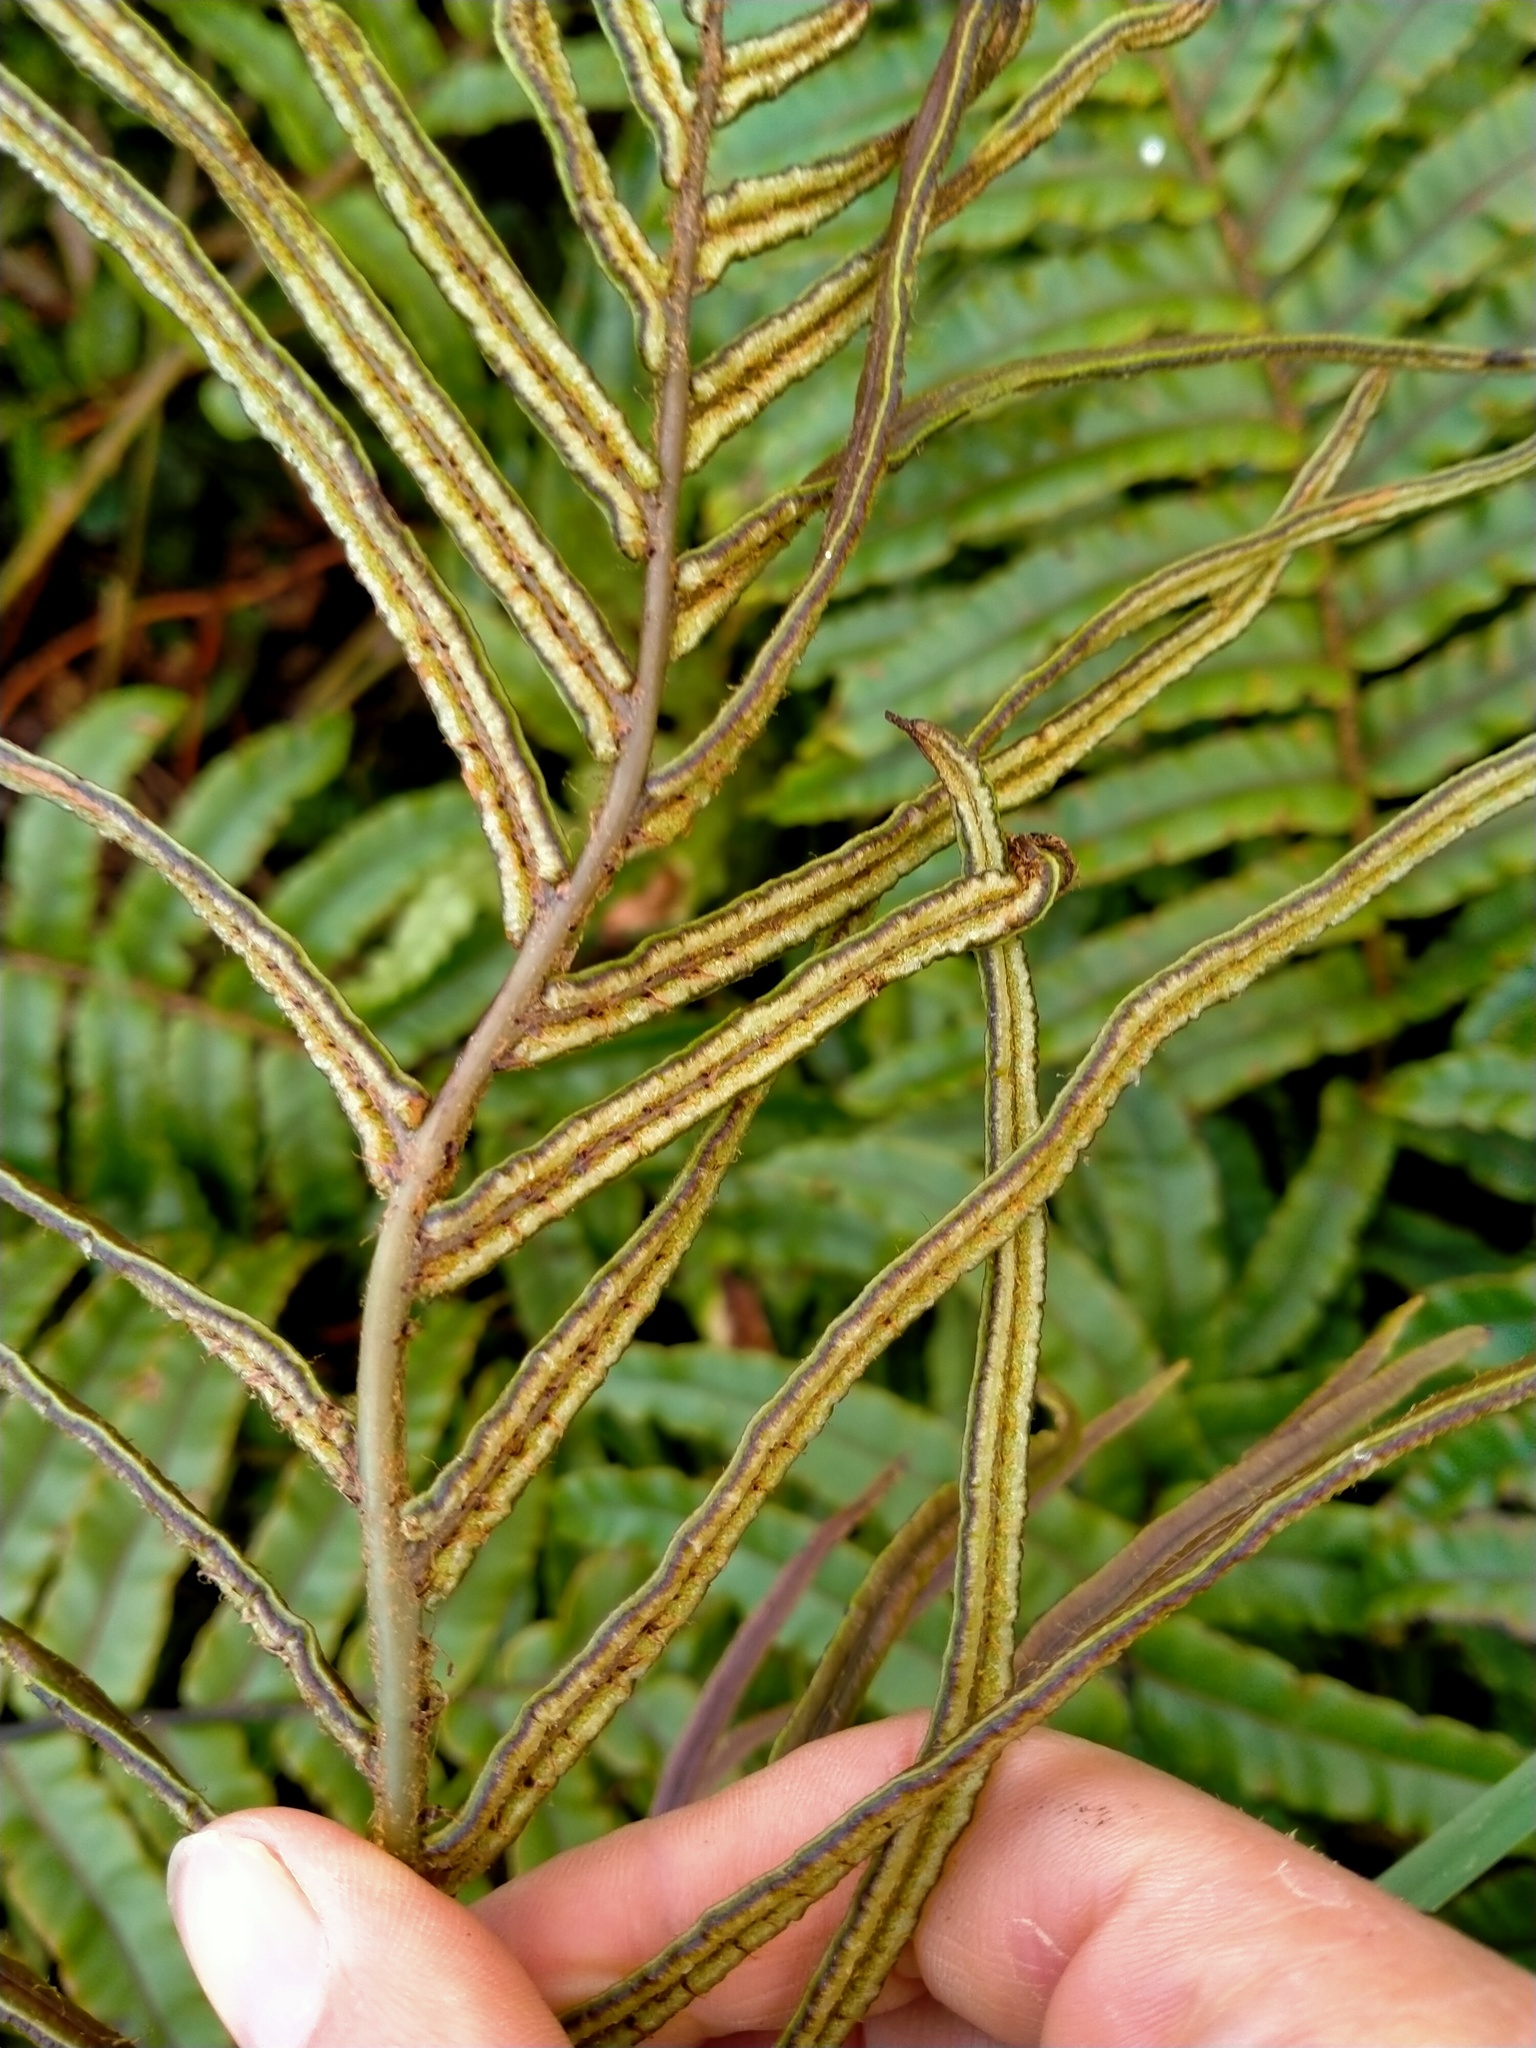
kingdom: Plantae
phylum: Tracheophyta
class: Polypodiopsida
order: Polypodiales
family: Blechnaceae
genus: Parablechnum
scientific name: Parablechnum novae-zelandiae
